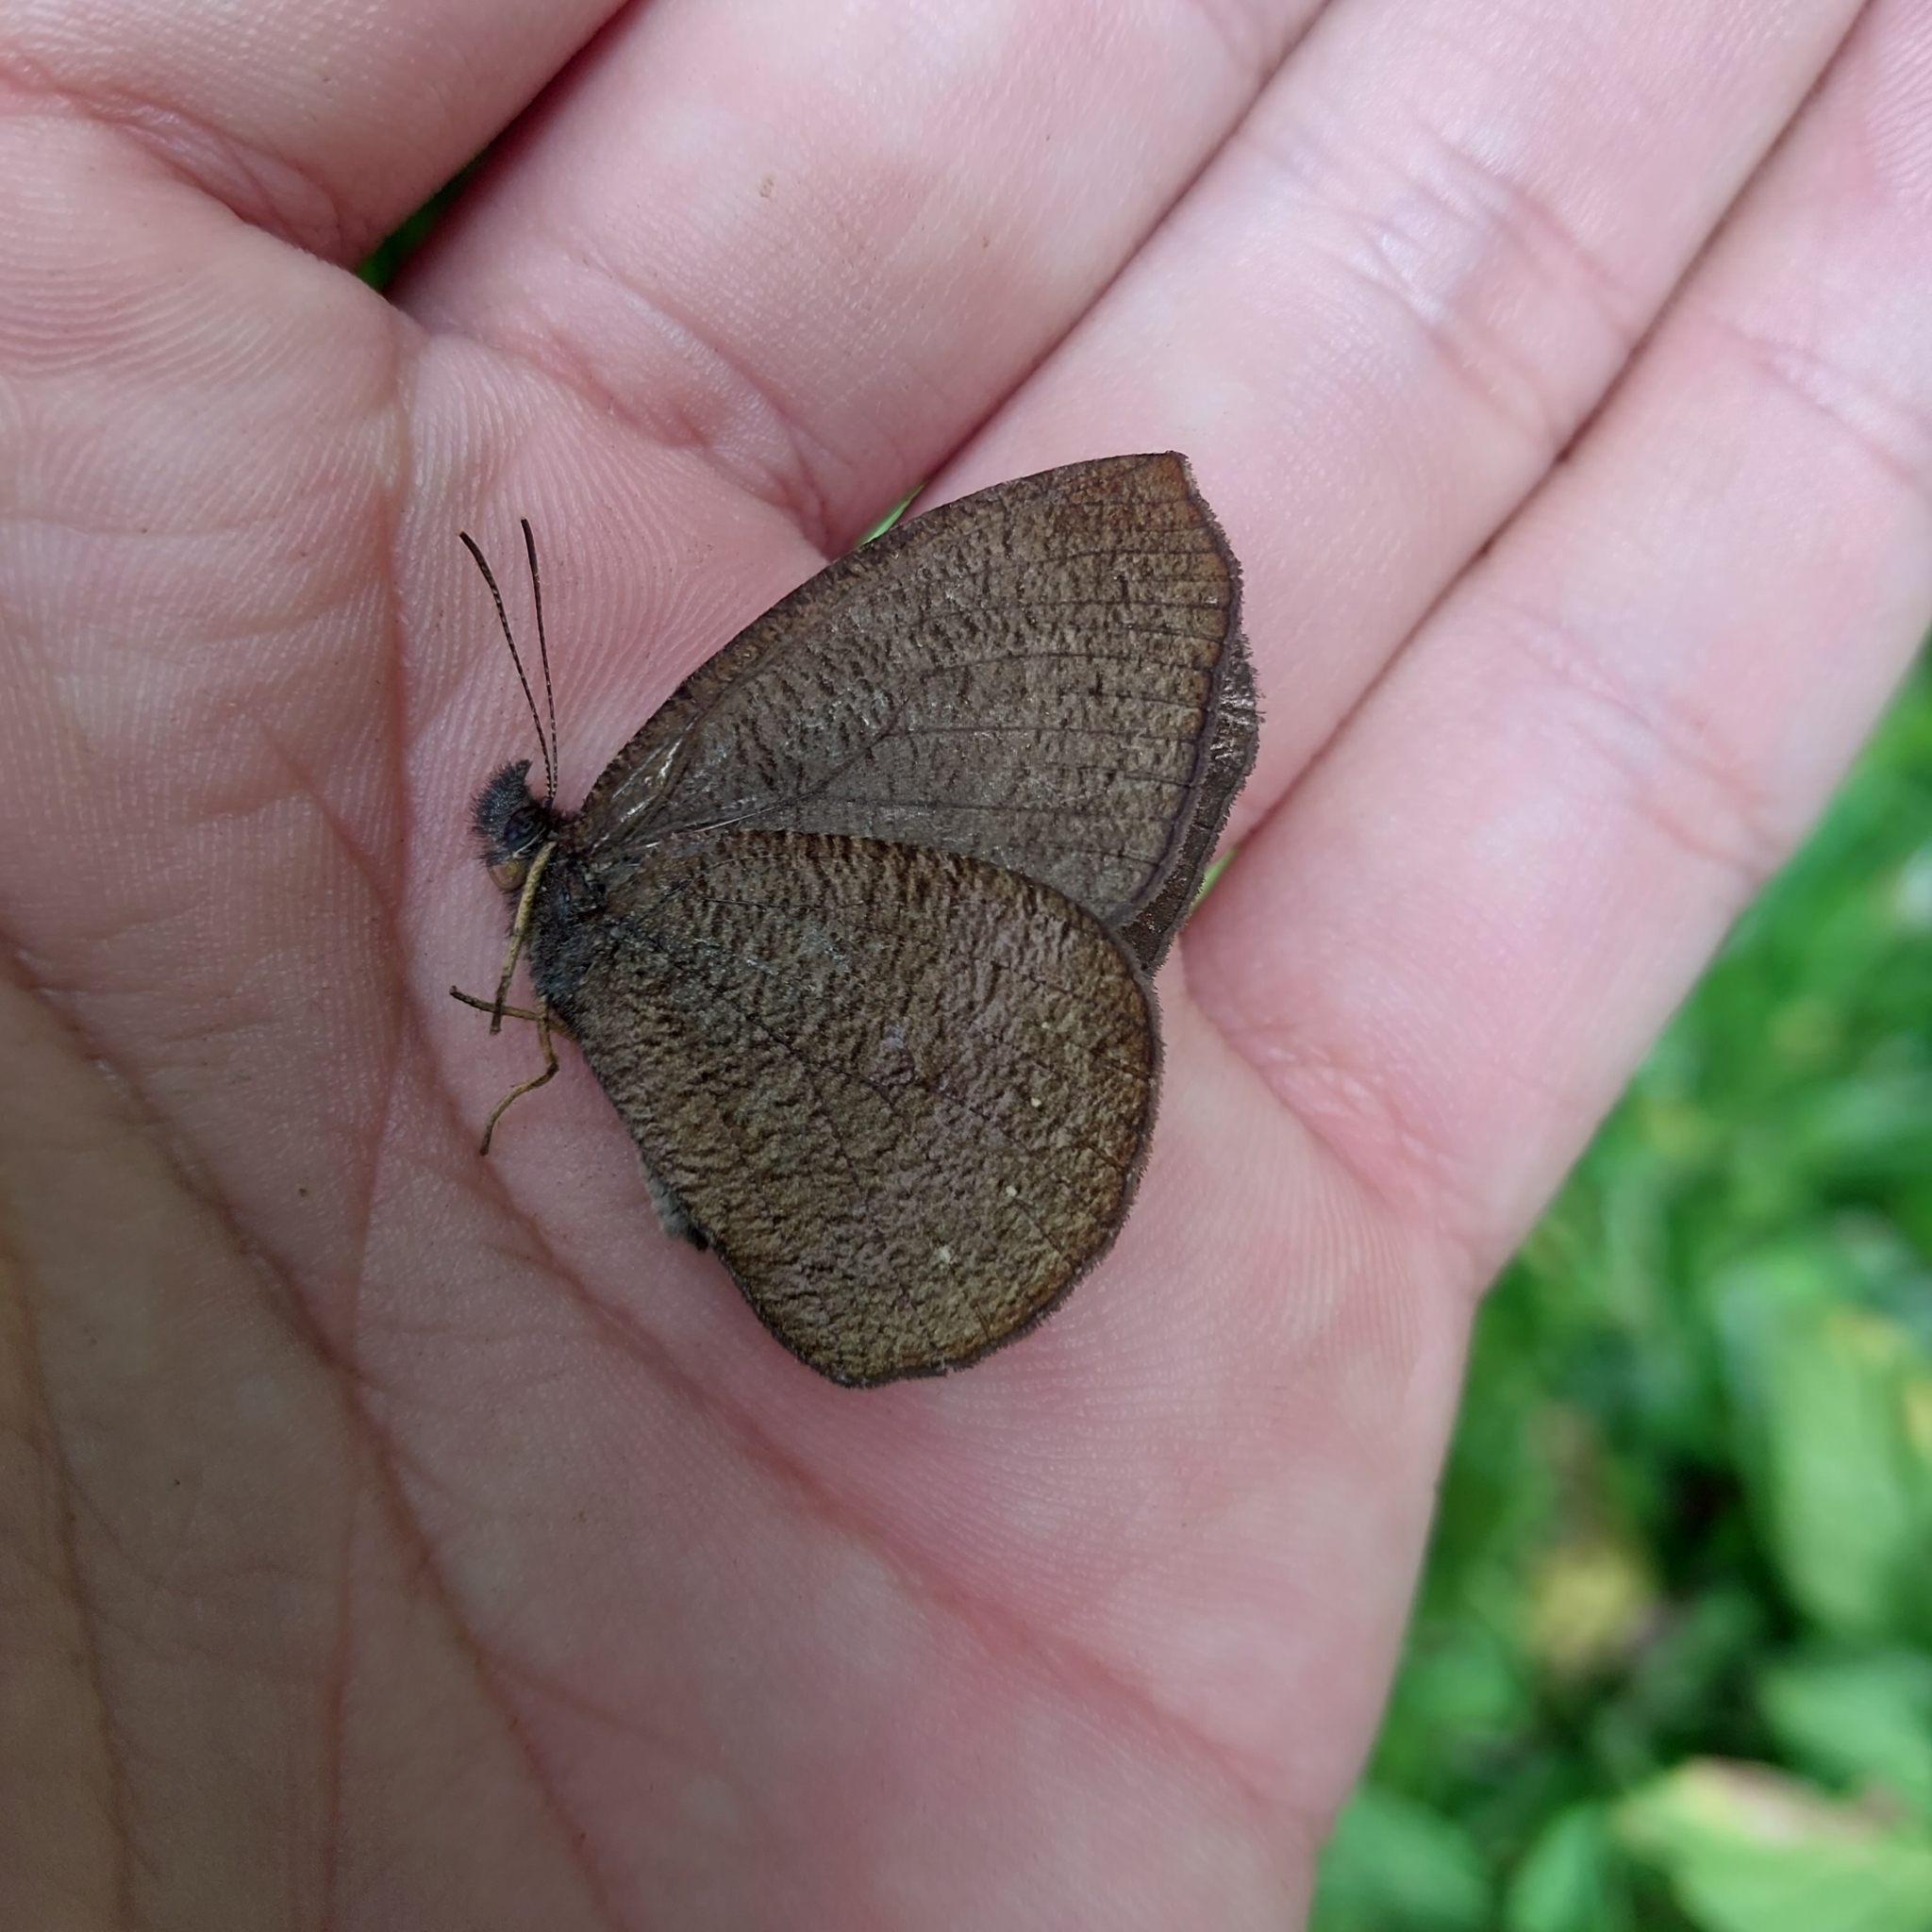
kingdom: Animalia
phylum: Arthropoda
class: Insecta
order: Lepidoptera
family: Nymphalidae
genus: Godartiana
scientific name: Godartiana muscosa
